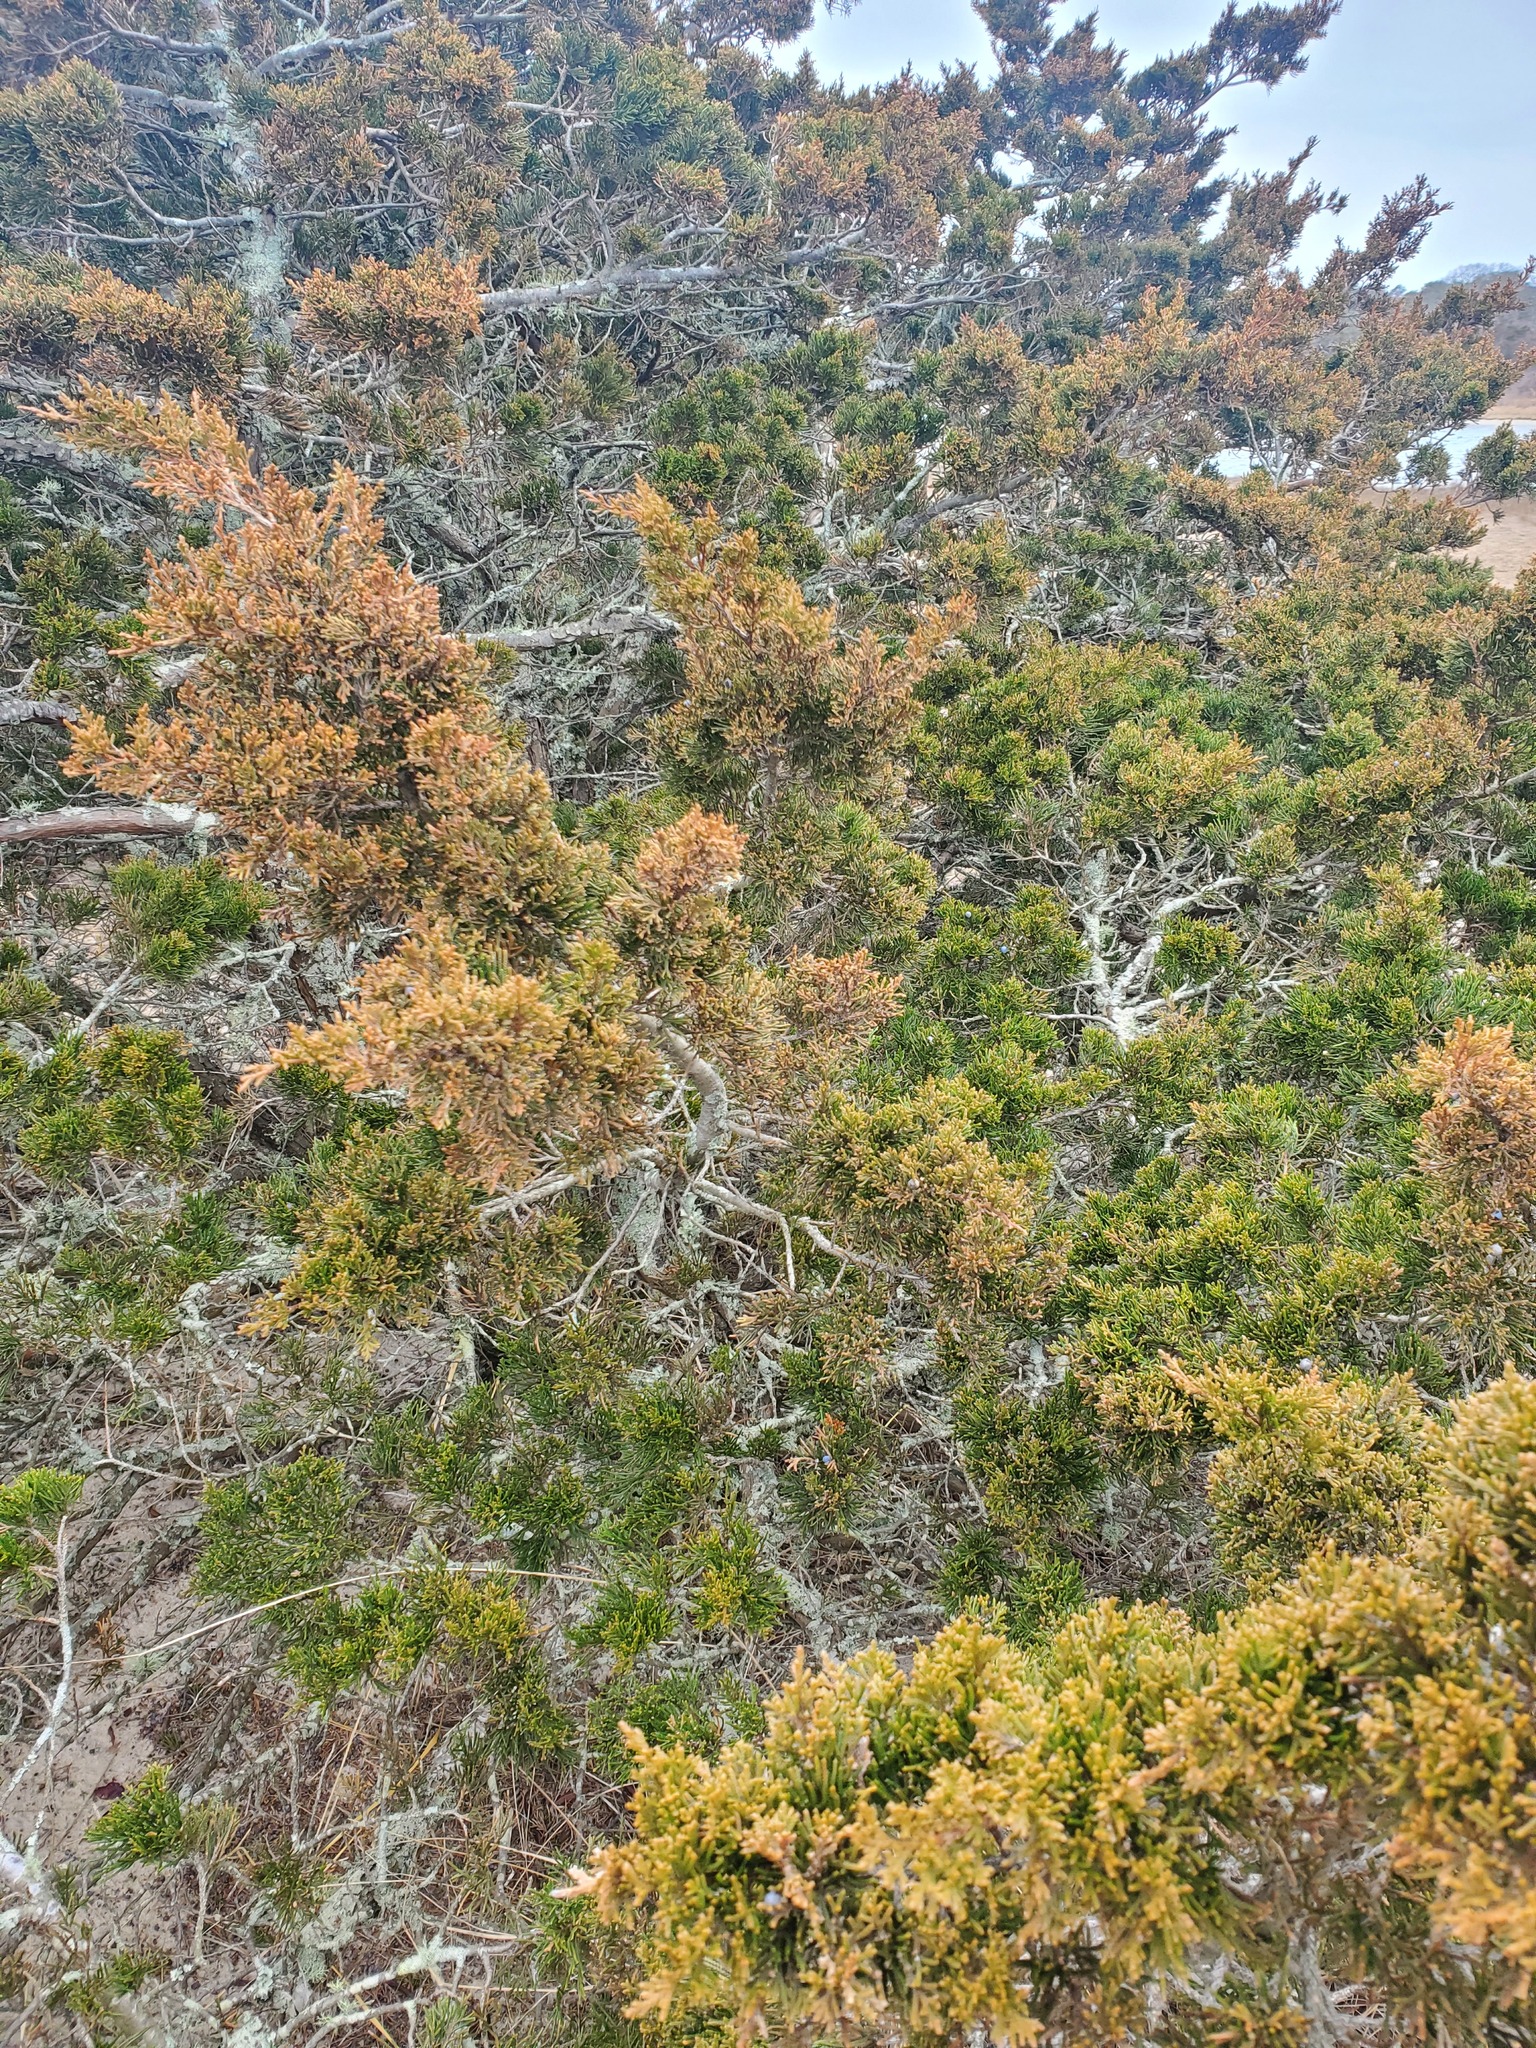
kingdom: Plantae
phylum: Tracheophyta
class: Pinopsida
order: Pinales
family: Cupressaceae
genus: Juniperus
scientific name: Juniperus virginiana
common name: Red juniper
